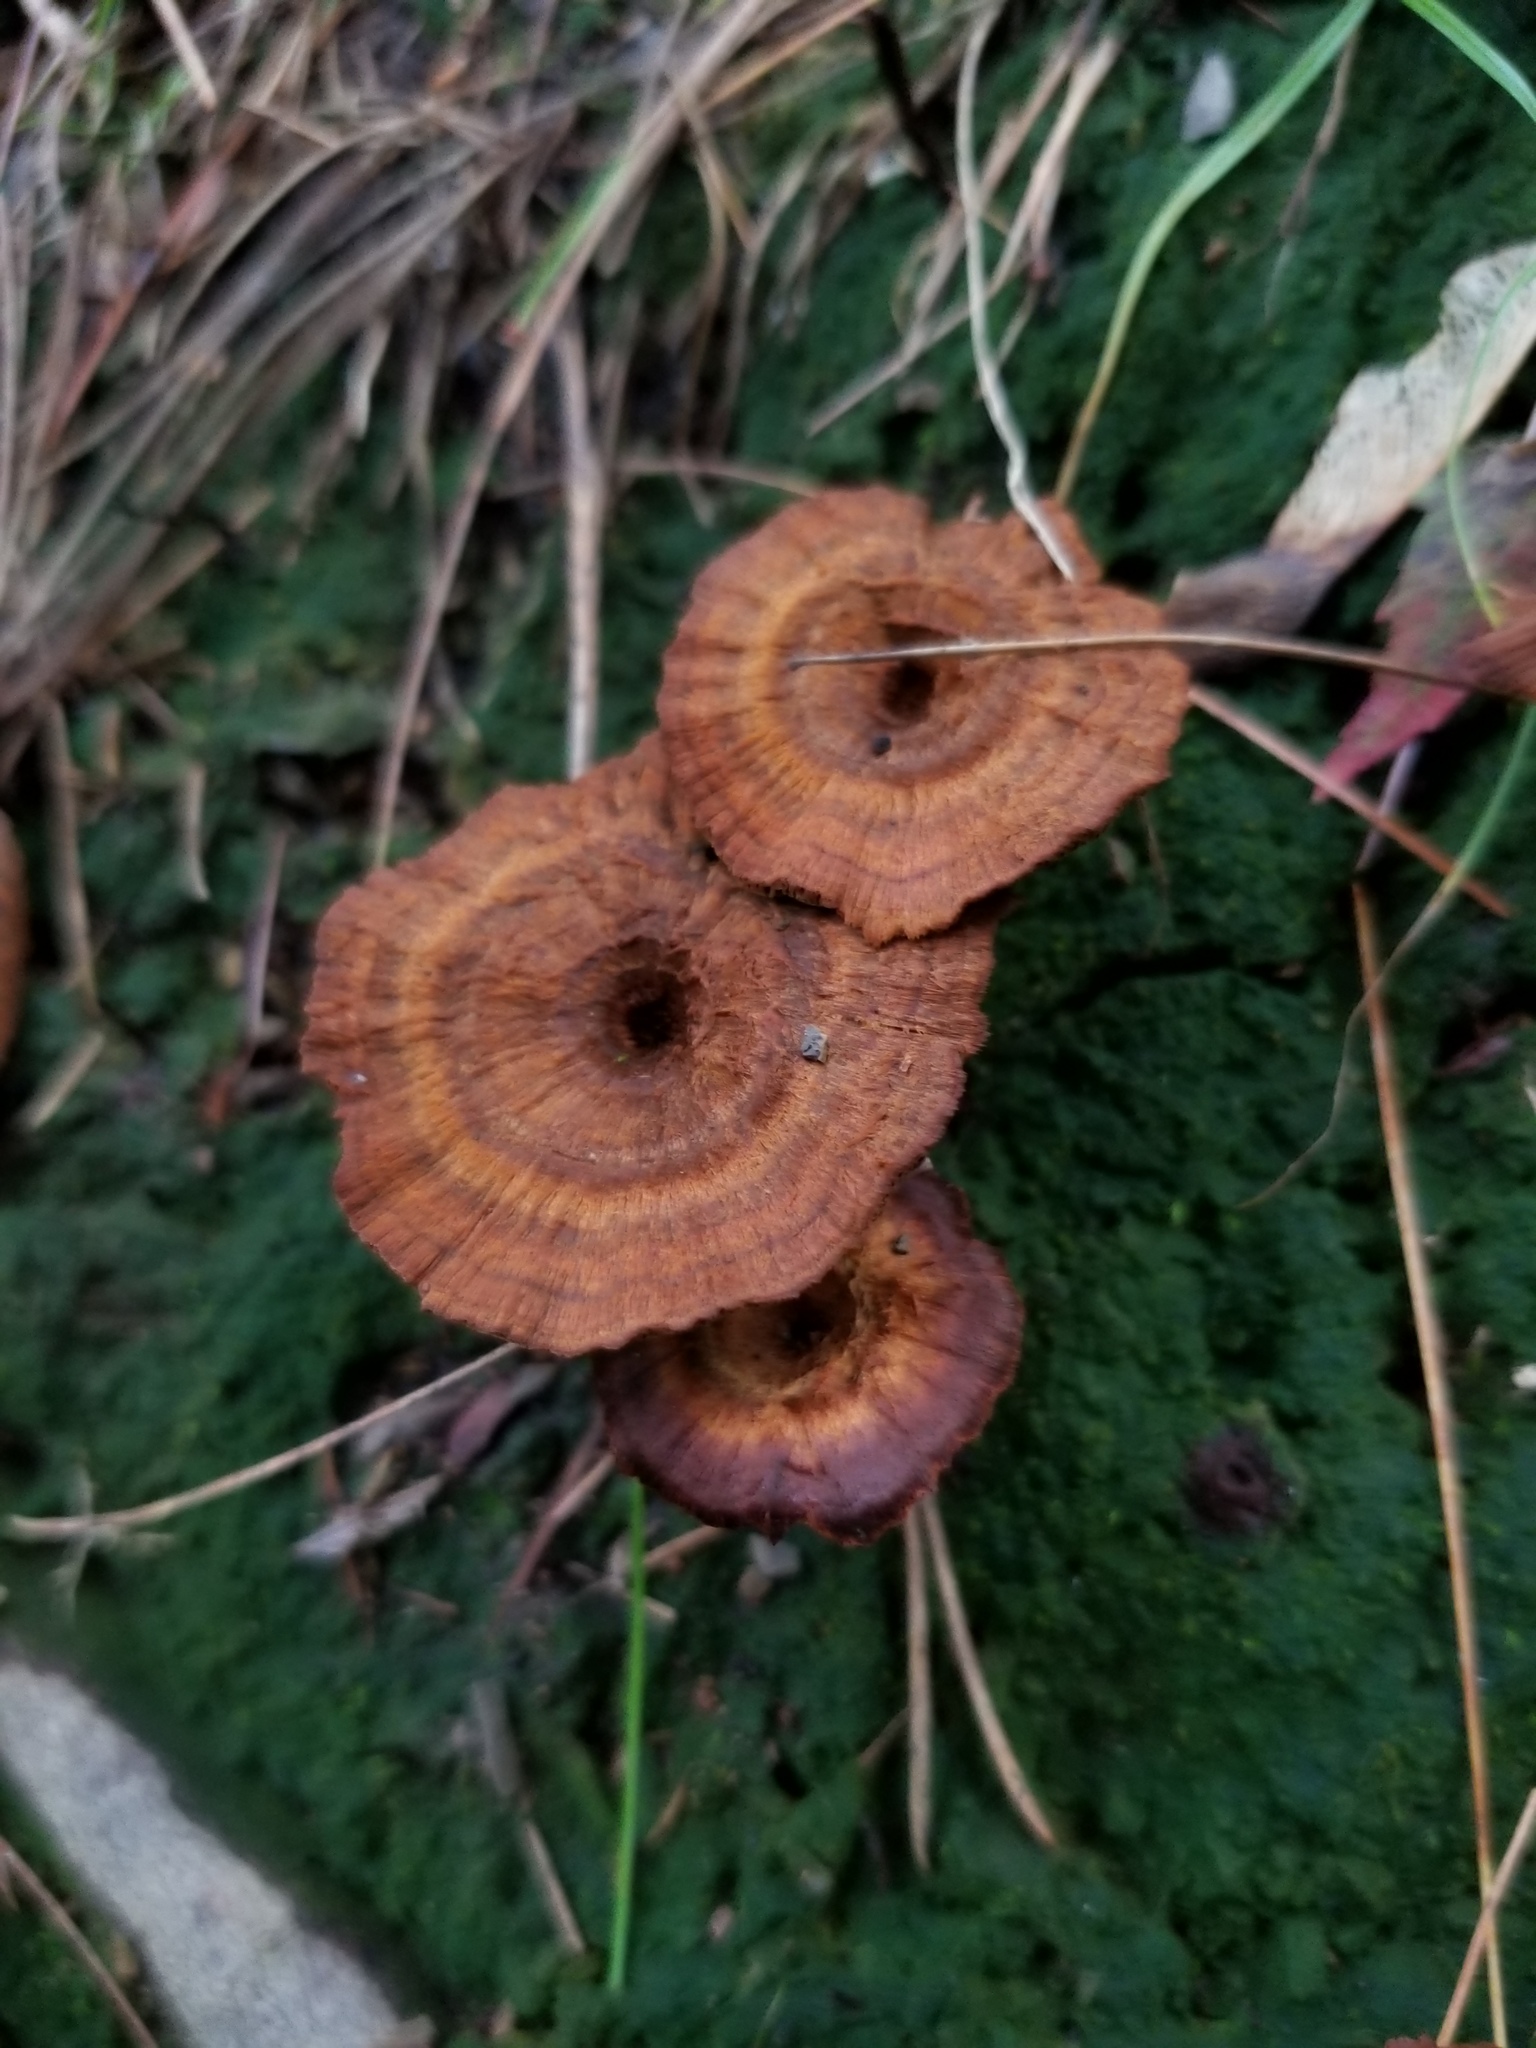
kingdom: Fungi
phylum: Basidiomycota
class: Agaricomycetes
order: Hymenochaetales
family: Hymenochaetaceae
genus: Coltricia
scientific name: Coltricia cinnamomea
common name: Shiny cinnamon polypore
